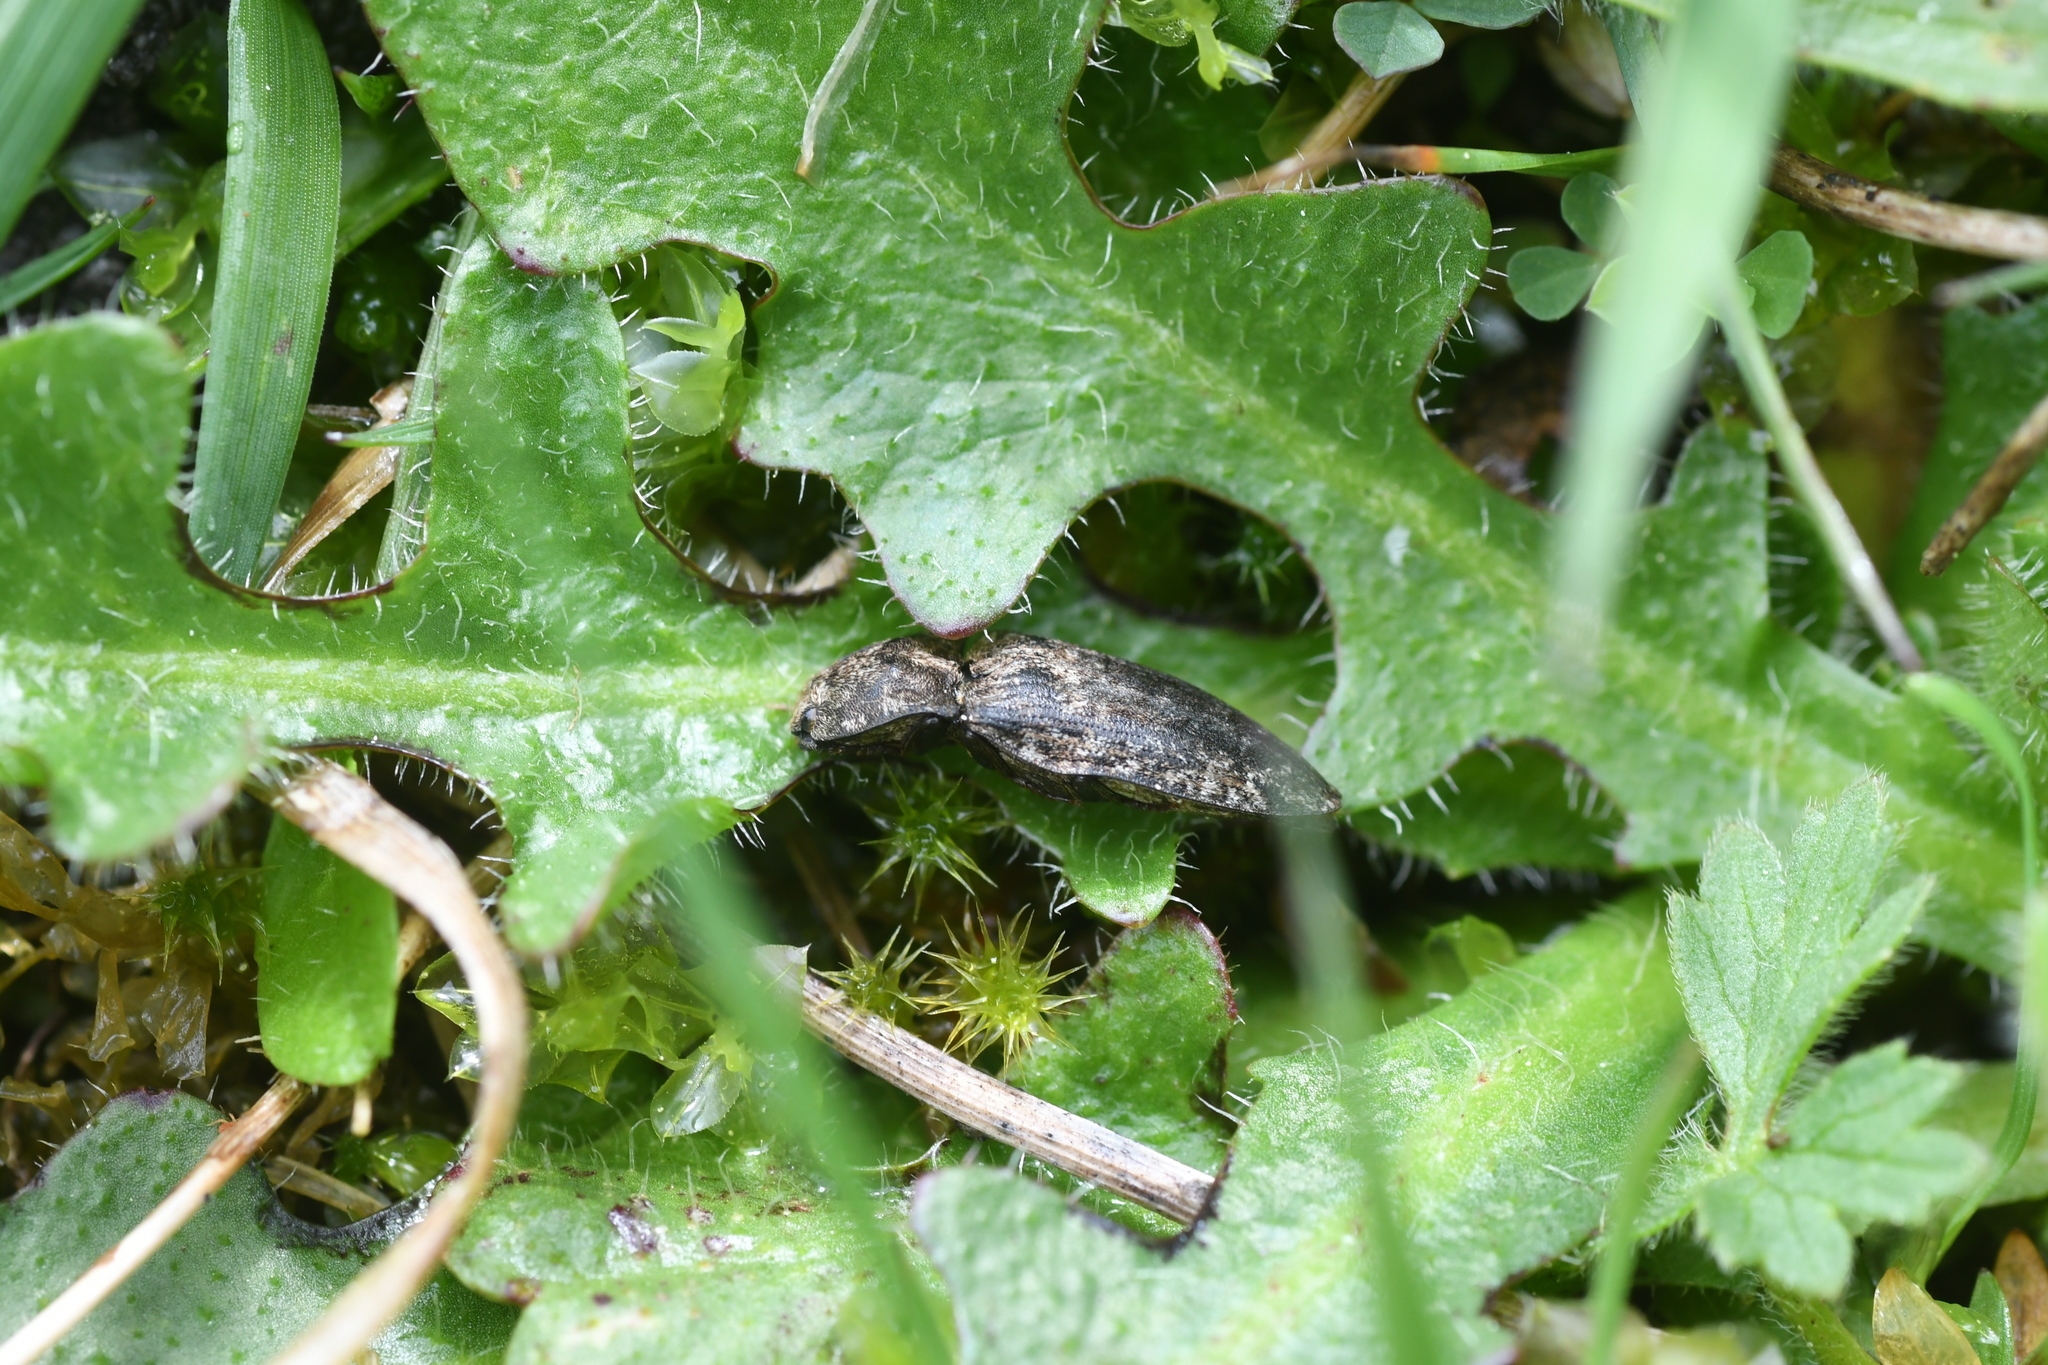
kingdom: Animalia
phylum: Arthropoda
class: Insecta
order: Coleoptera
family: Elateridae
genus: Agrypnus
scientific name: Agrypnus murinus
